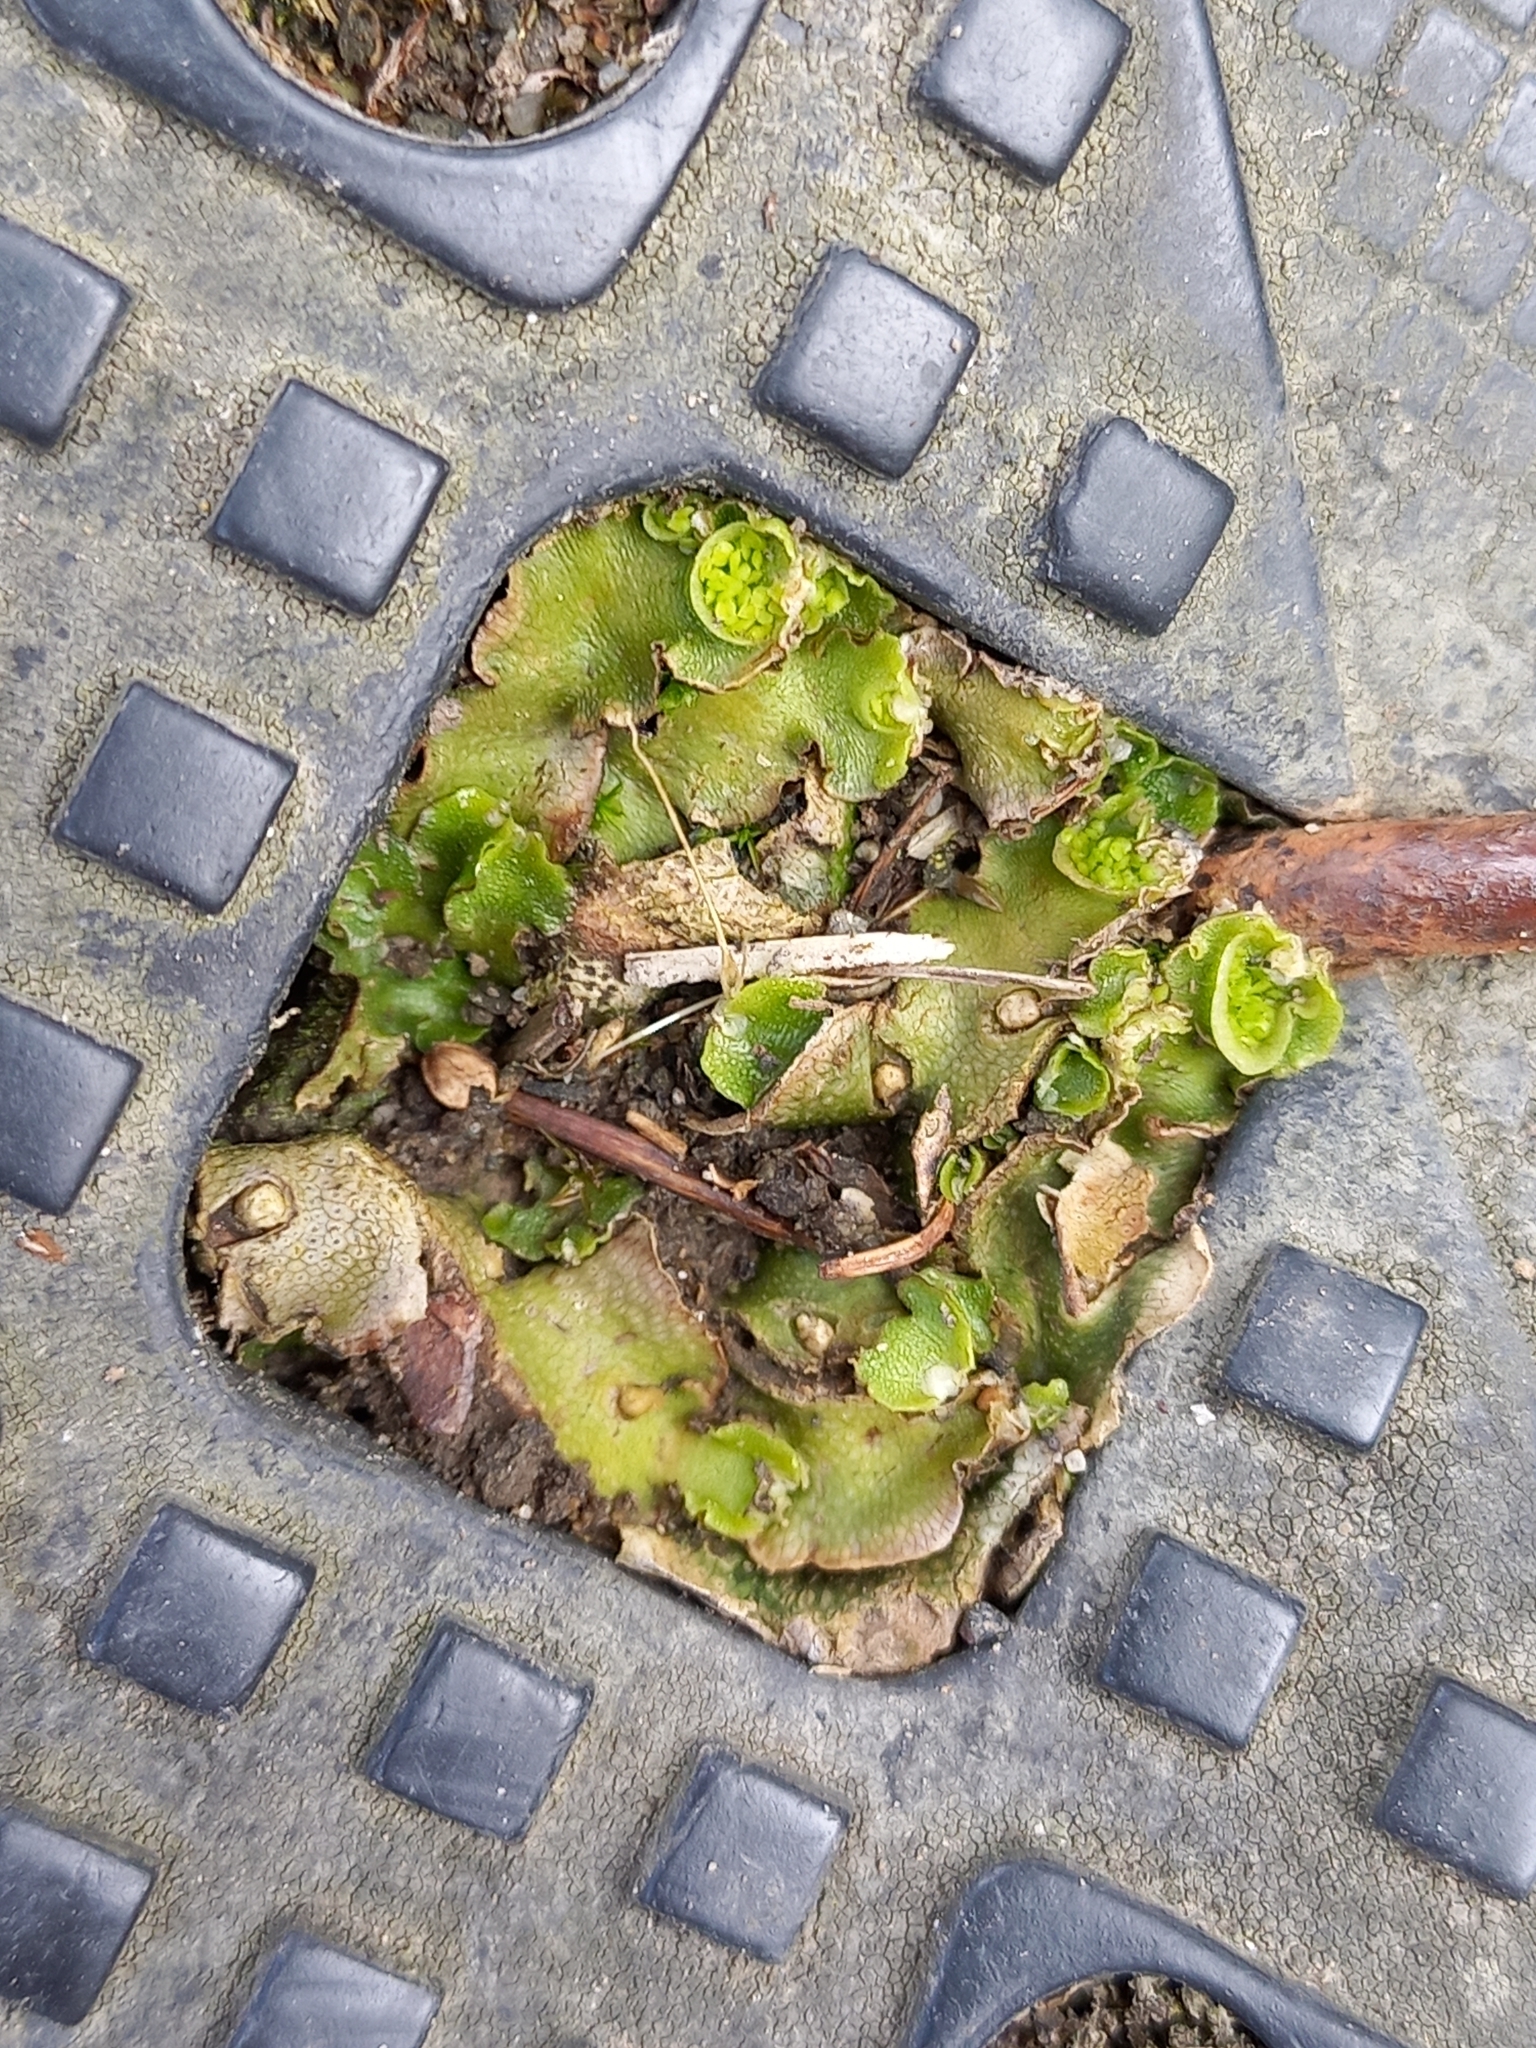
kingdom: Plantae
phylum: Marchantiophyta
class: Marchantiopsida
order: Lunulariales
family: Lunulariaceae
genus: Lunularia
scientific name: Lunularia cruciata
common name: Crescent-cup liverwort
